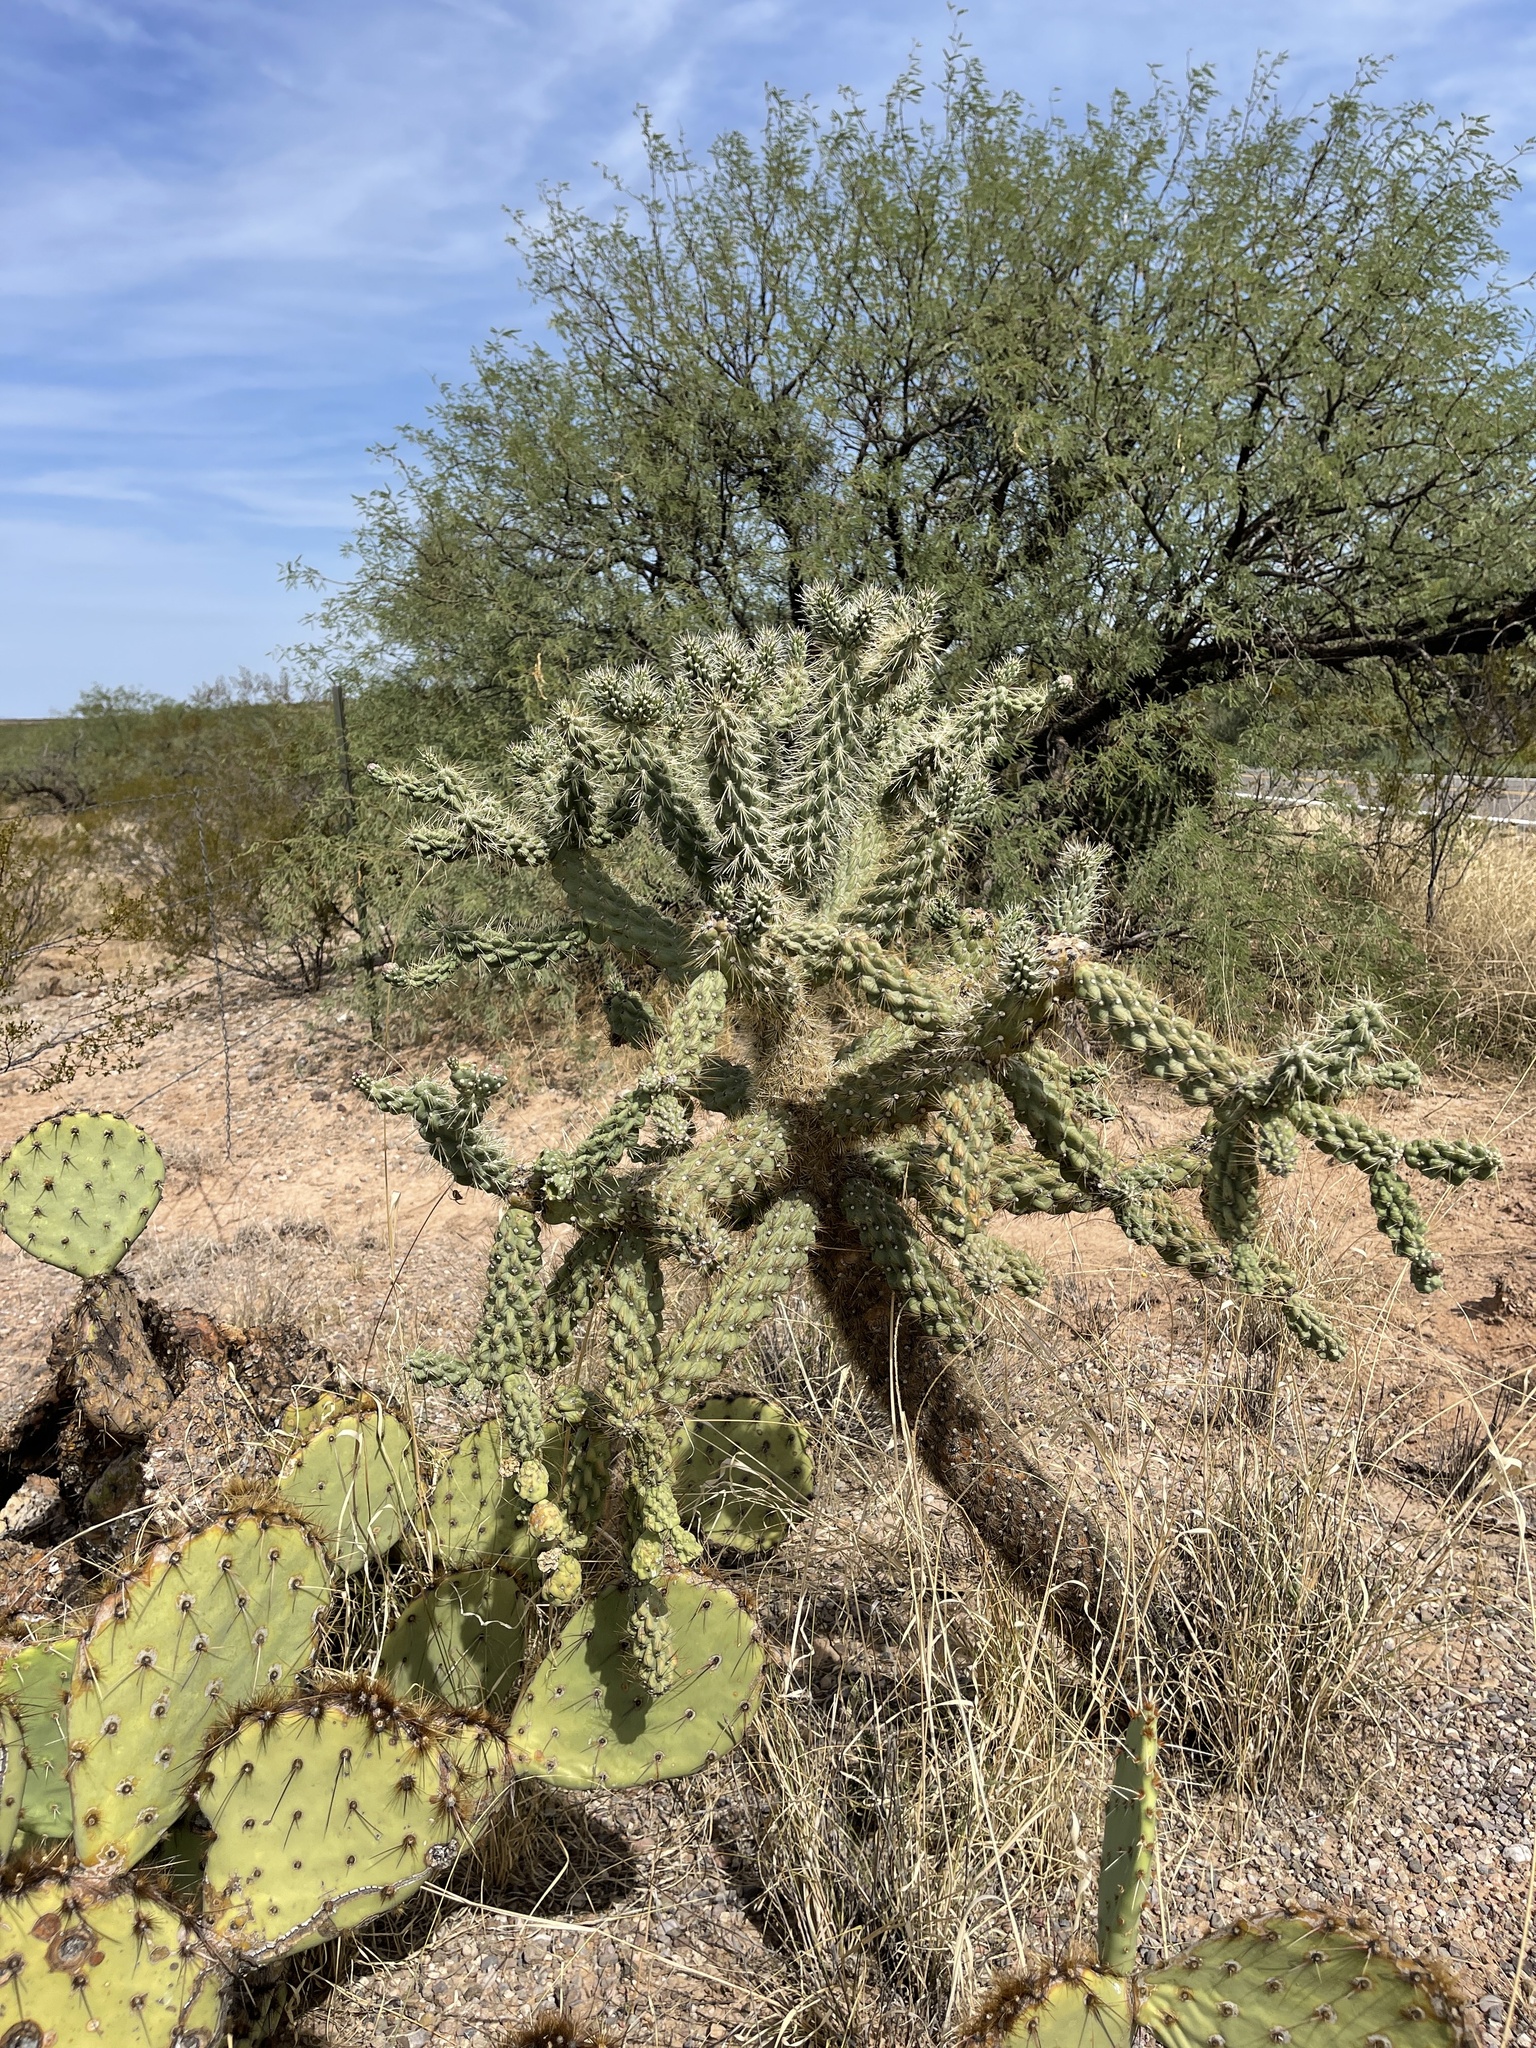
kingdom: Plantae
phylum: Tracheophyta
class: Magnoliopsida
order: Caryophyllales
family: Cactaceae
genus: Cylindropuntia
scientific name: Cylindropuntia fulgida
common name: Jumping cholla
